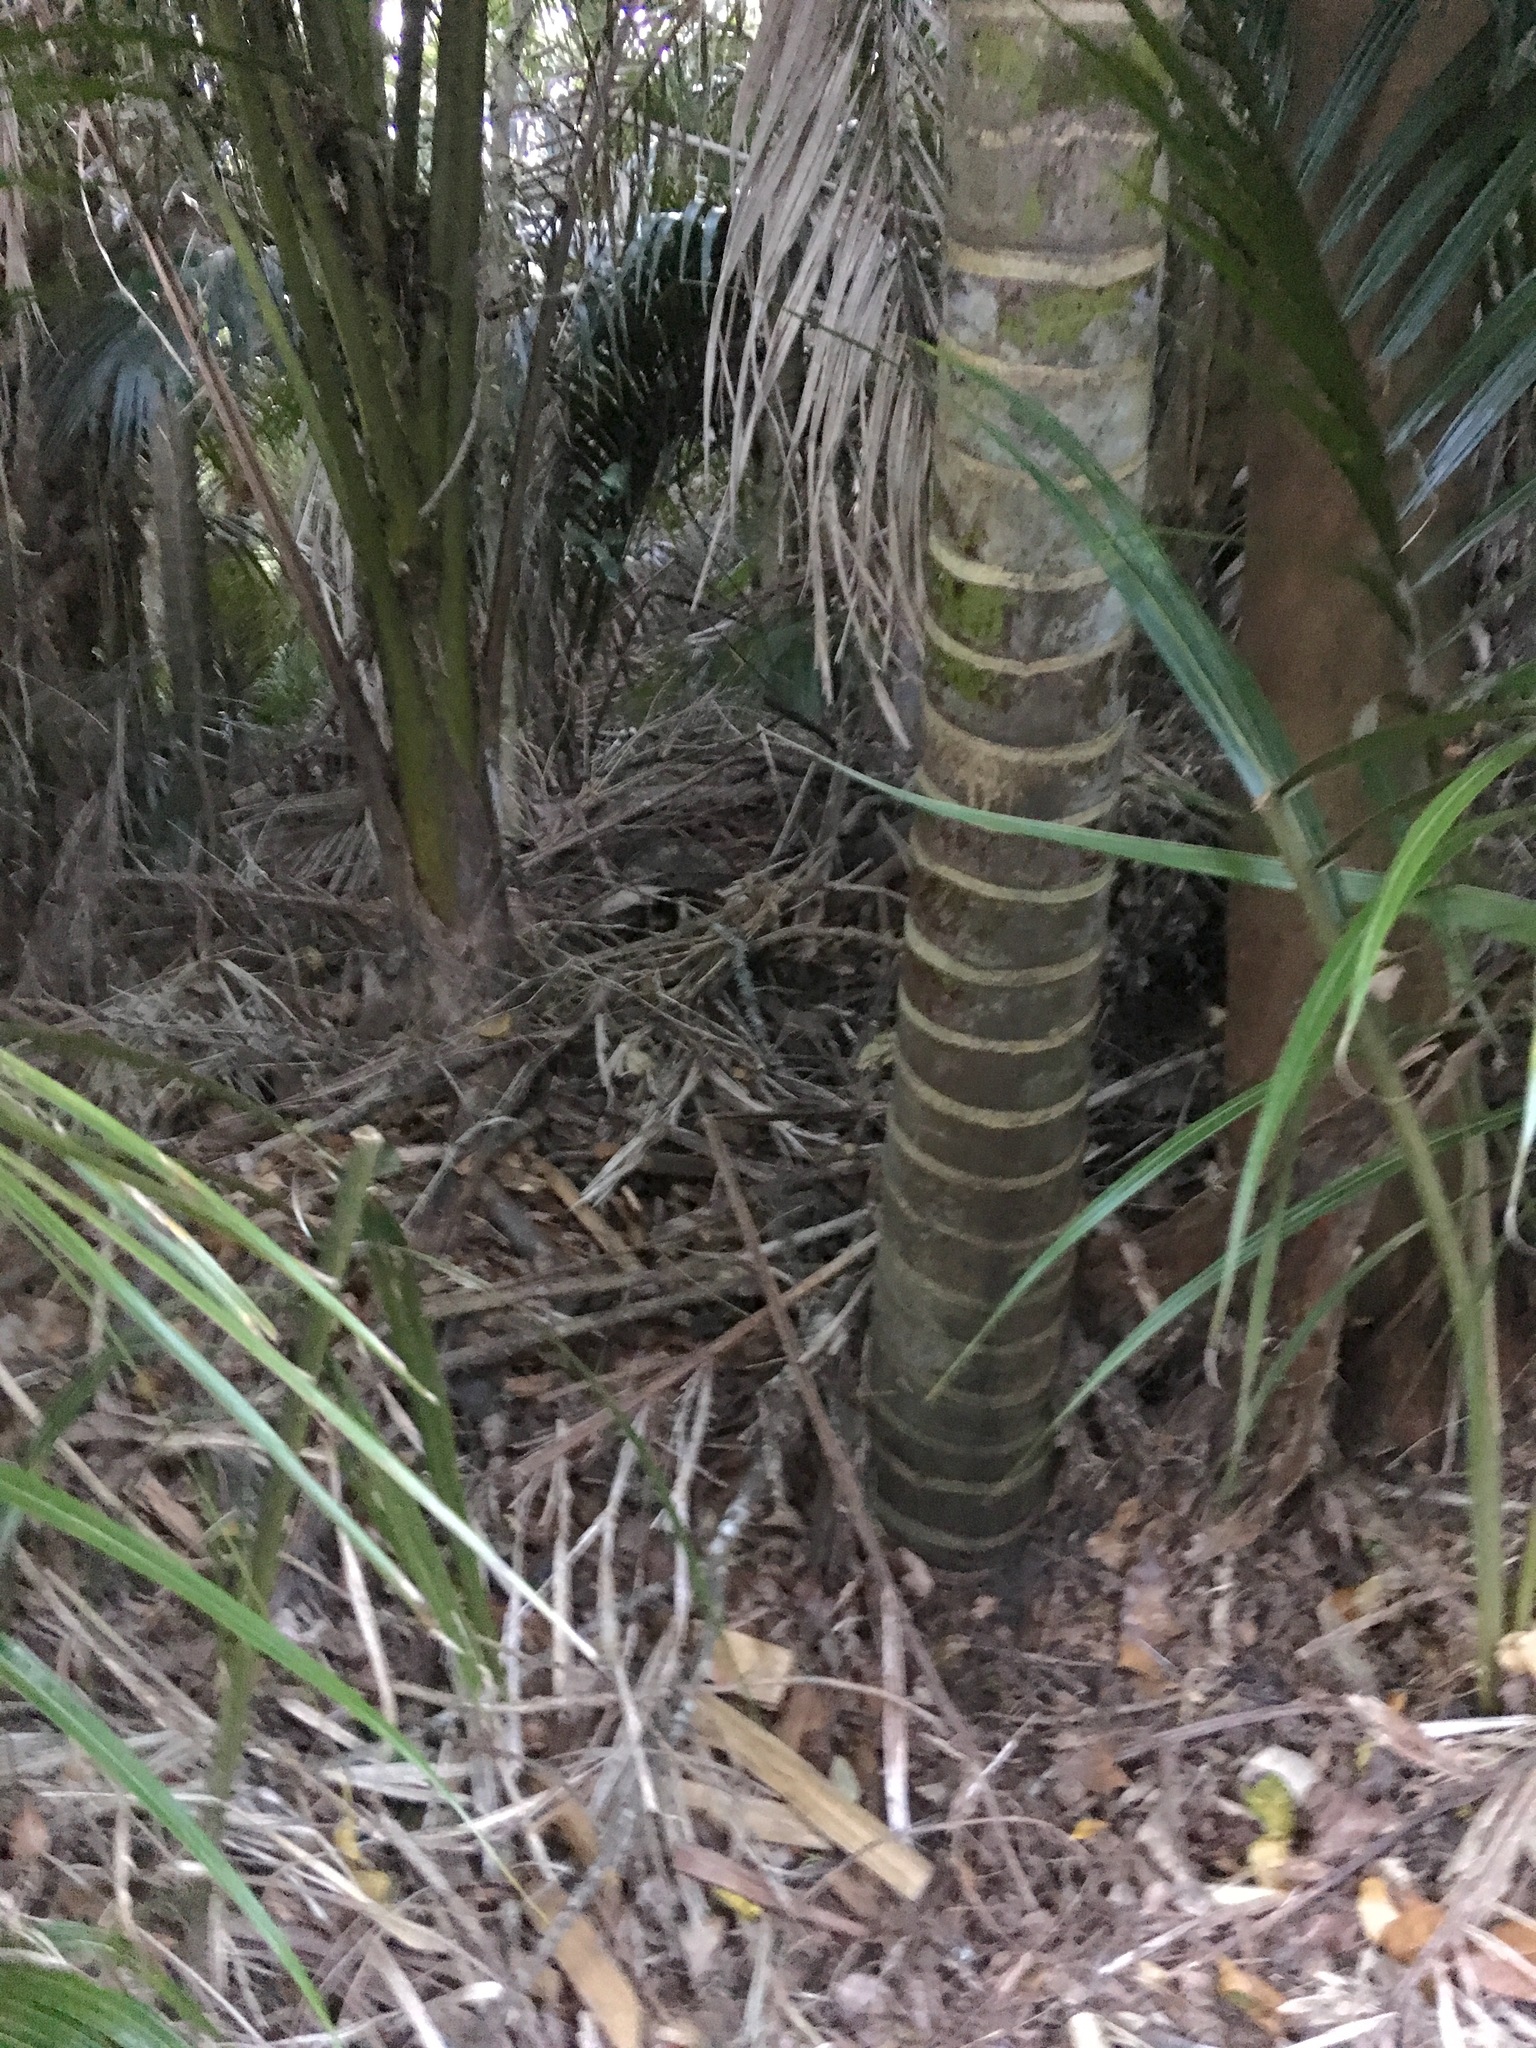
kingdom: Plantae
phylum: Tracheophyta
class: Liliopsida
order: Arecales
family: Arecaceae
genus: Rhopalostylis
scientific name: Rhopalostylis sapida
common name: Feather-duster palm
